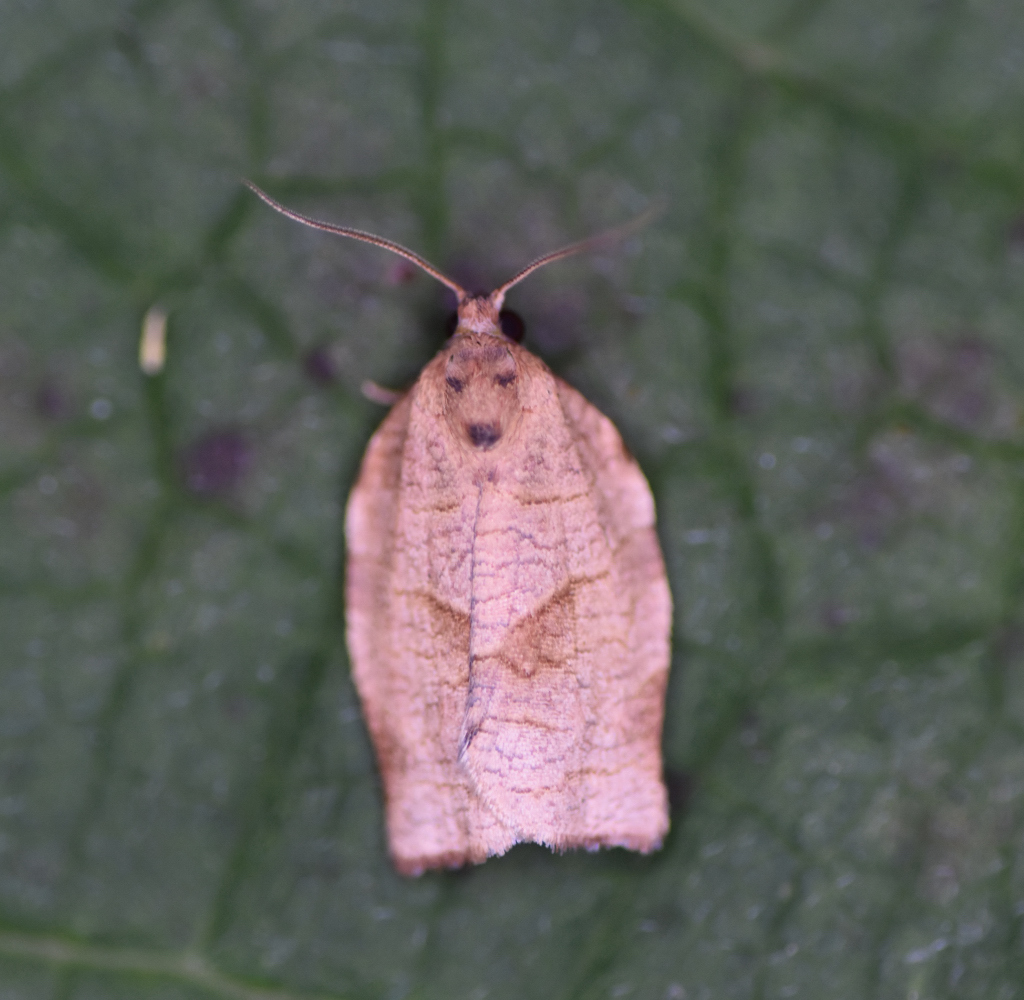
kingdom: Animalia
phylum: Arthropoda
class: Insecta
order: Lepidoptera
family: Tortricidae
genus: Choristoneura
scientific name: Choristoneura rosaceana
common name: Oblique-banded leafroller moth
